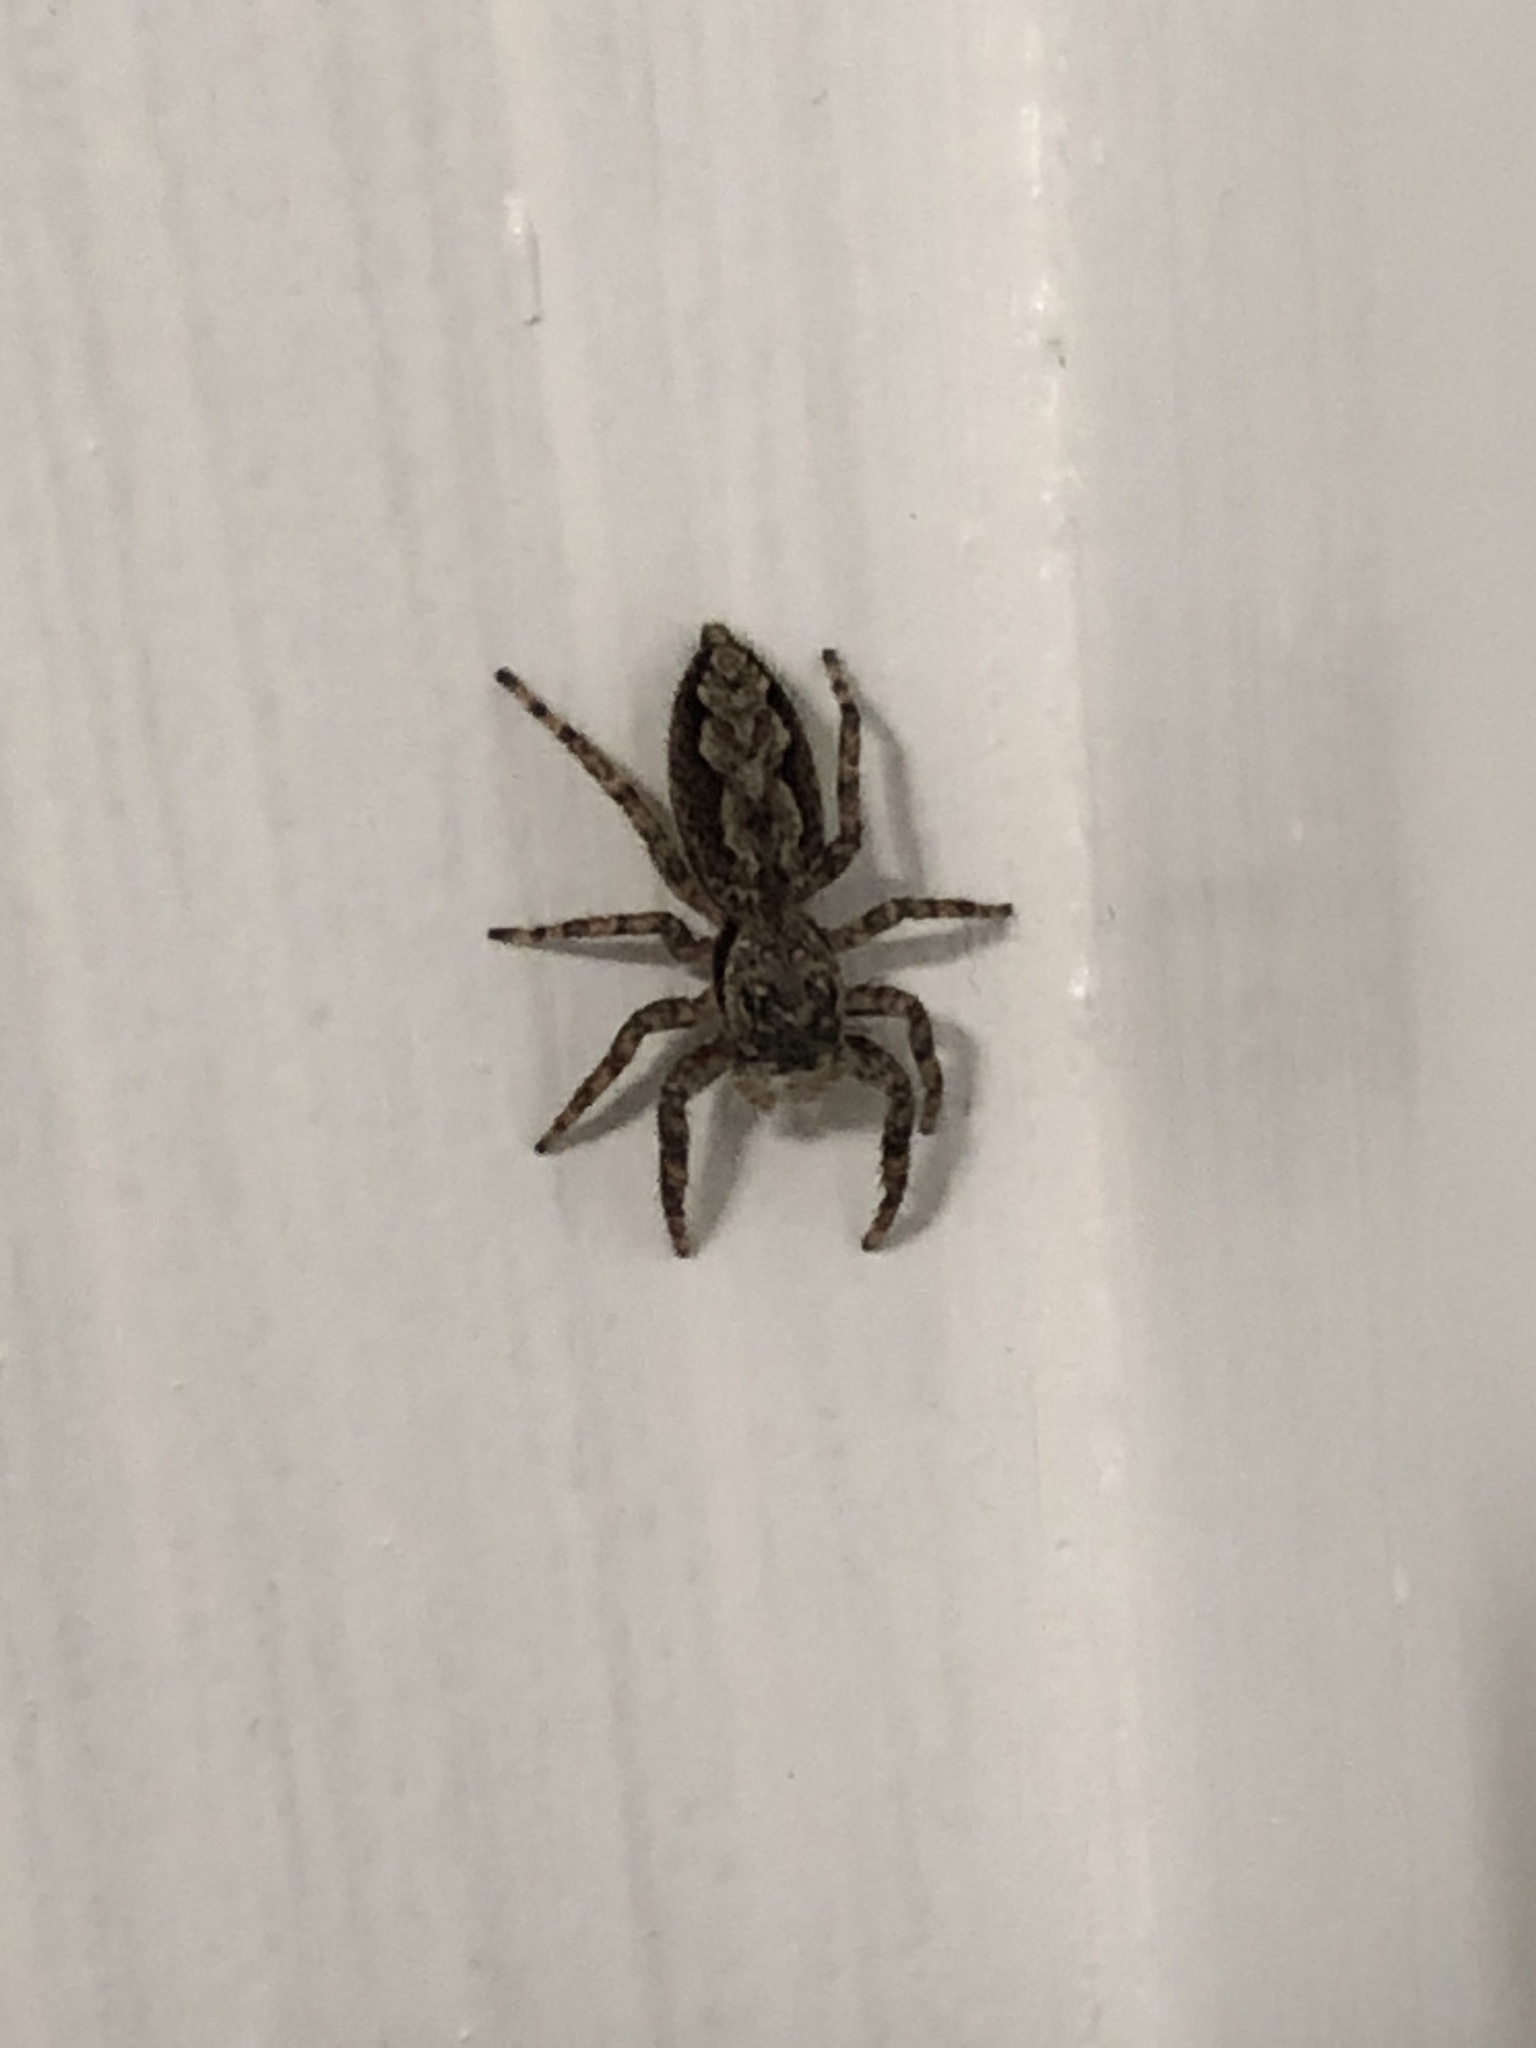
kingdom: Animalia
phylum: Arthropoda
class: Arachnida
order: Araneae
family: Salticidae
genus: Platycryptus
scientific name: Platycryptus undatus
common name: Tan jumping spider
